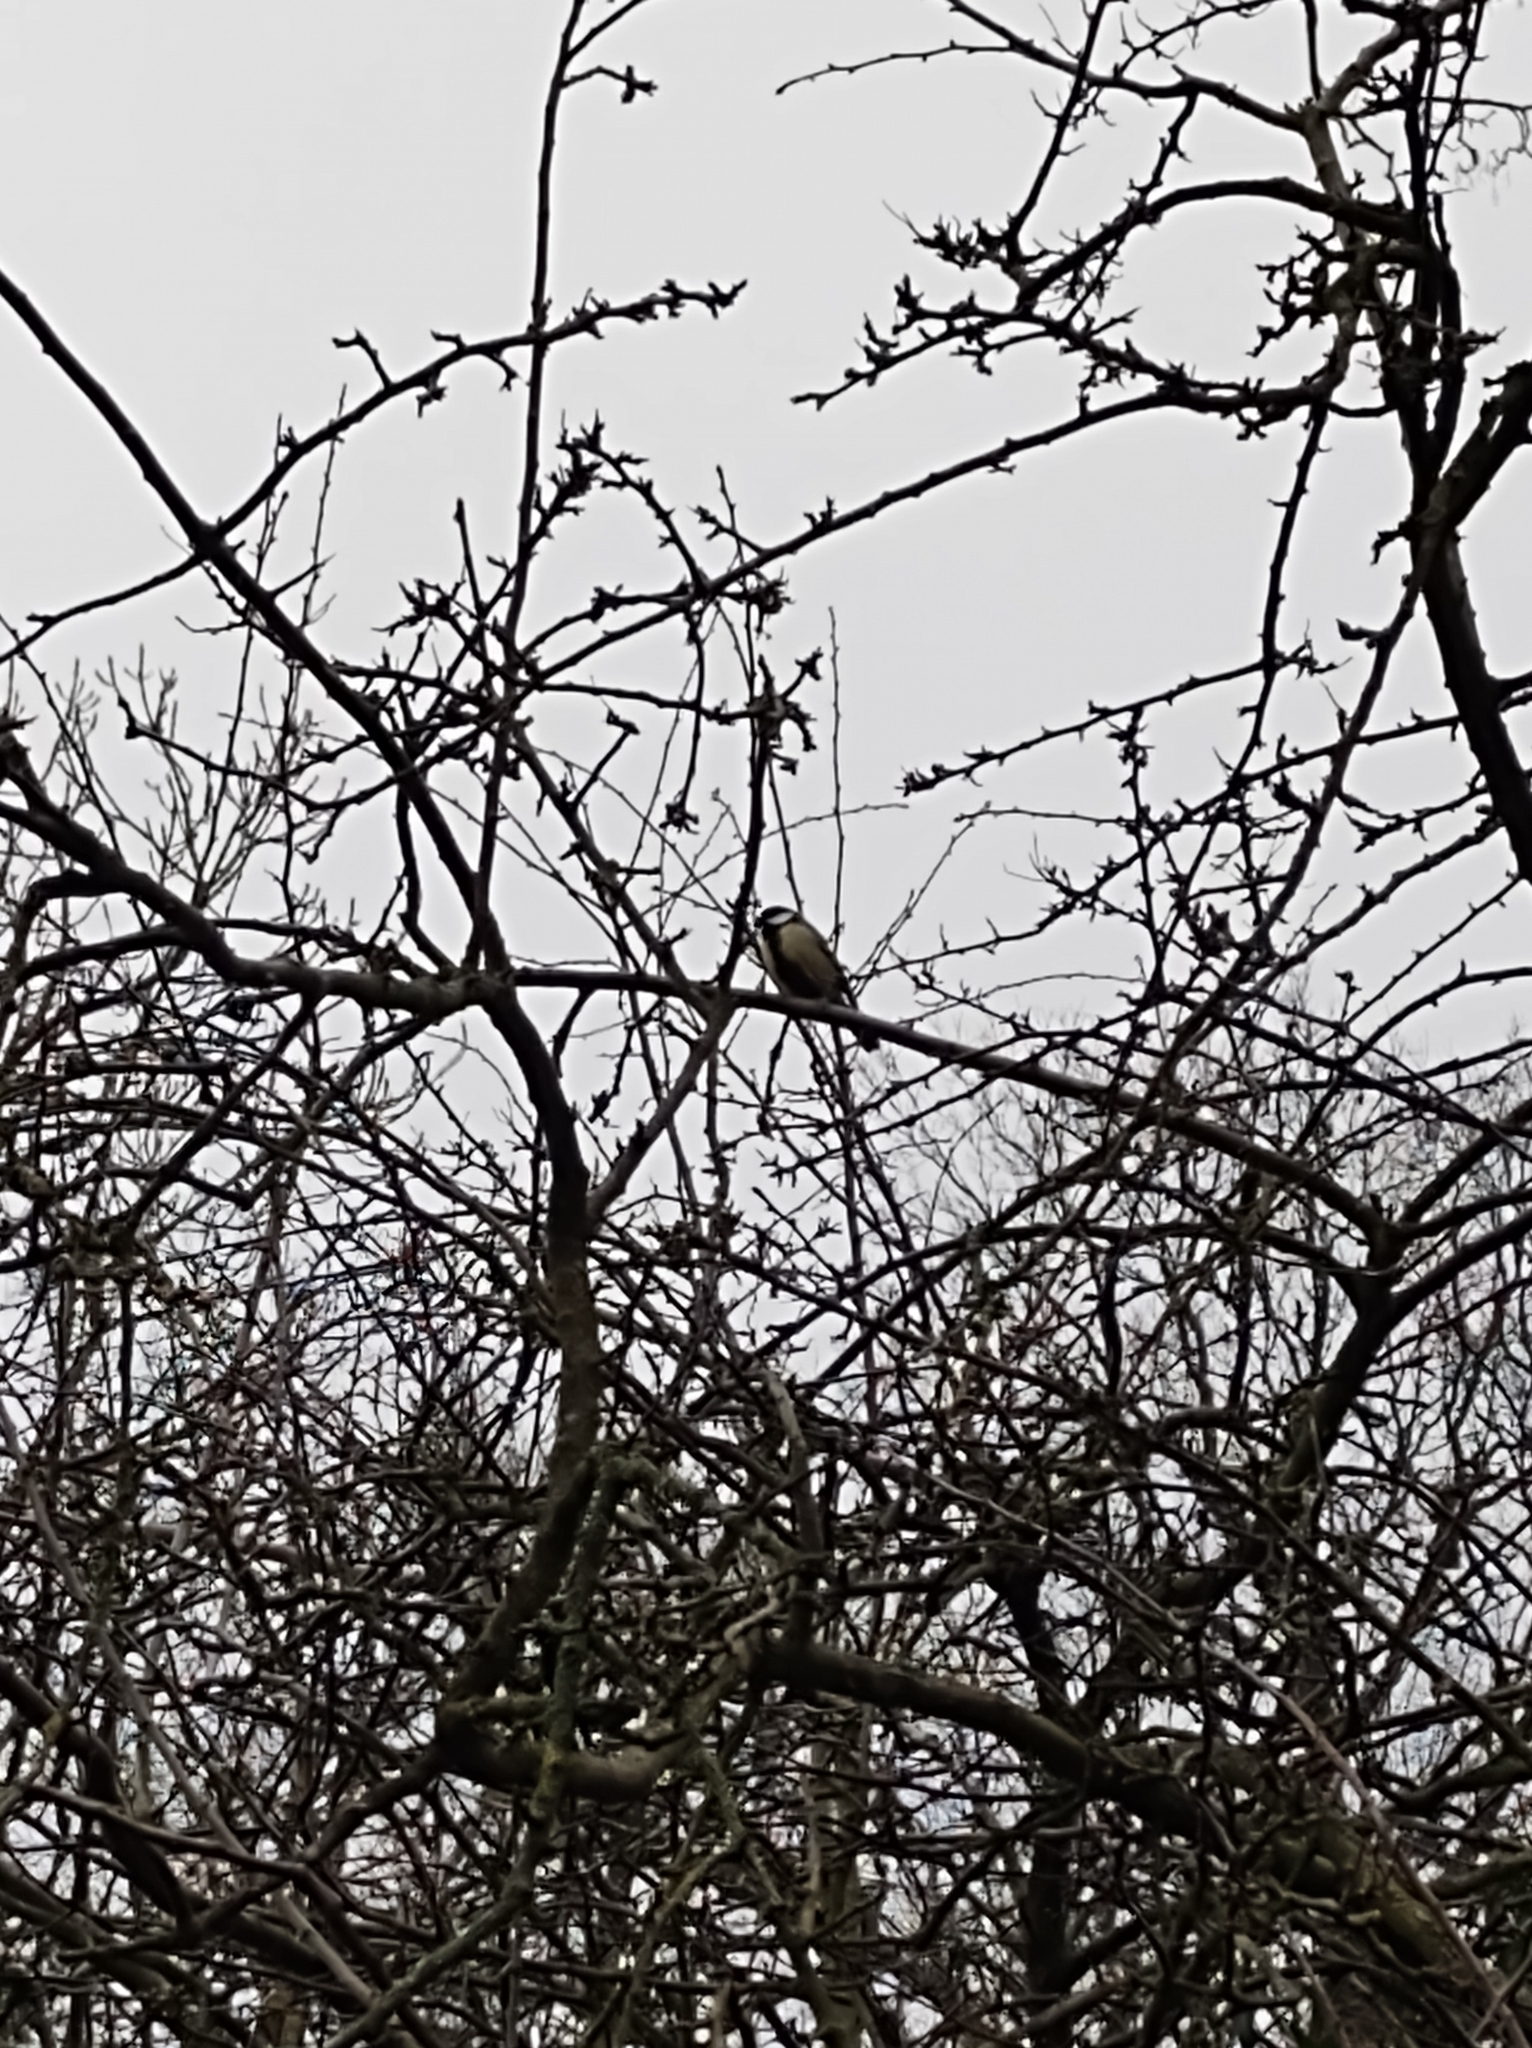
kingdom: Animalia
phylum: Chordata
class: Aves
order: Passeriformes
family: Paridae
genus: Parus
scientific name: Parus major
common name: Great tit
